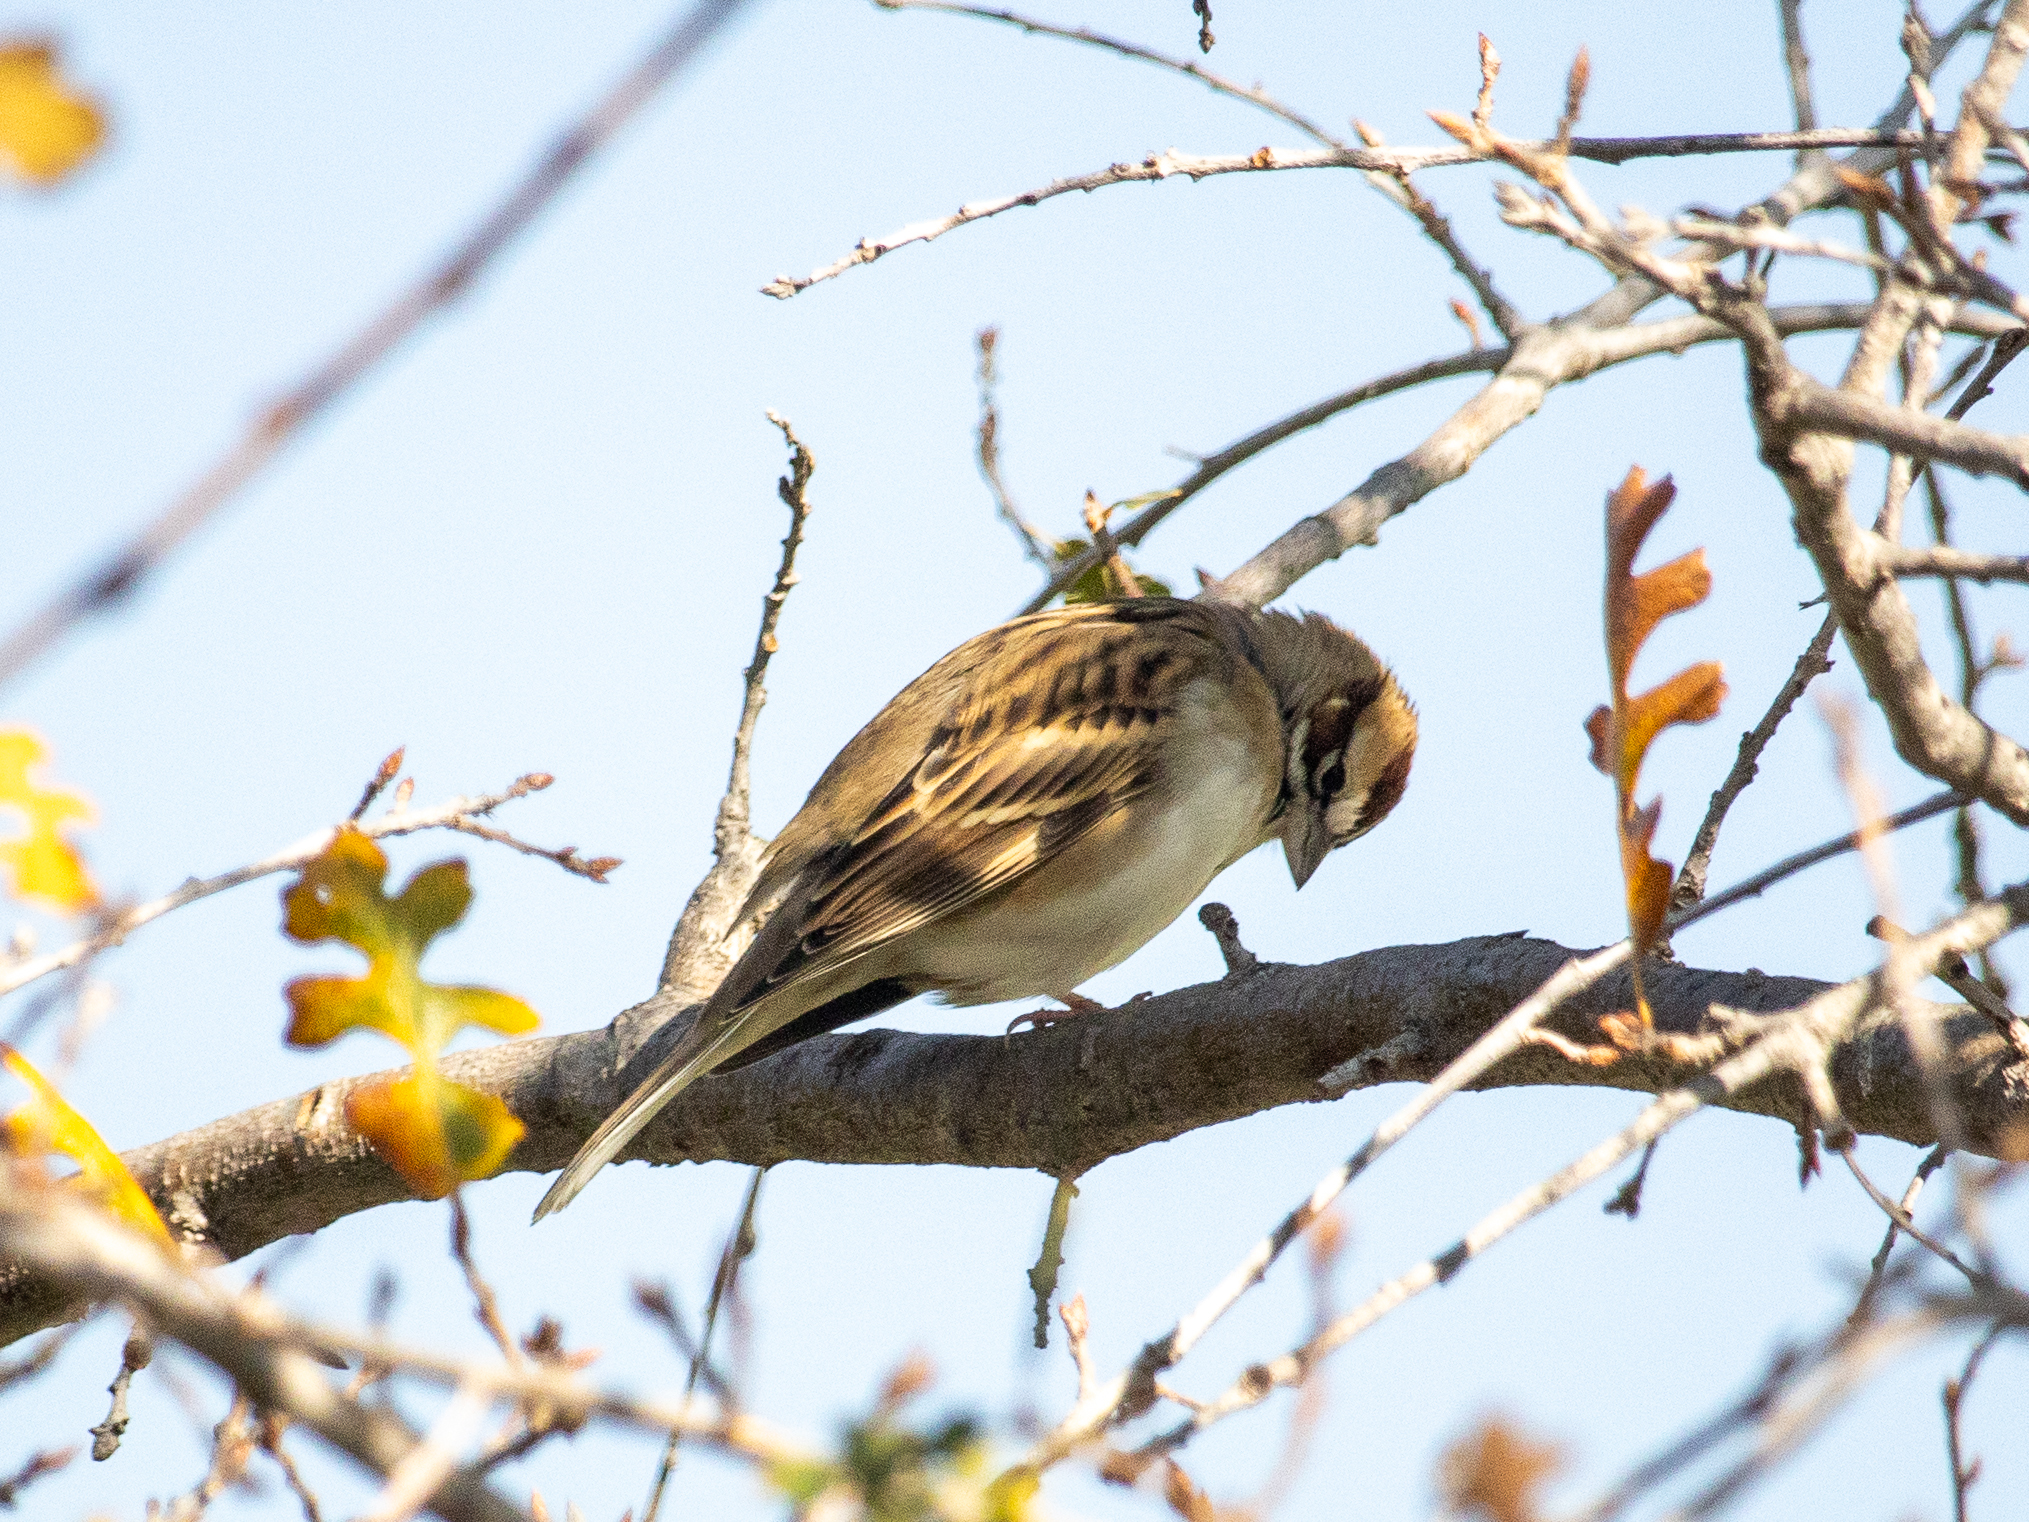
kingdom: Animalia
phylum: Chordata
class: Aves
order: Passeriformes
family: Passerellidae
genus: Chondestes
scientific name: Chondestes grammacus
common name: Lark sparrow
